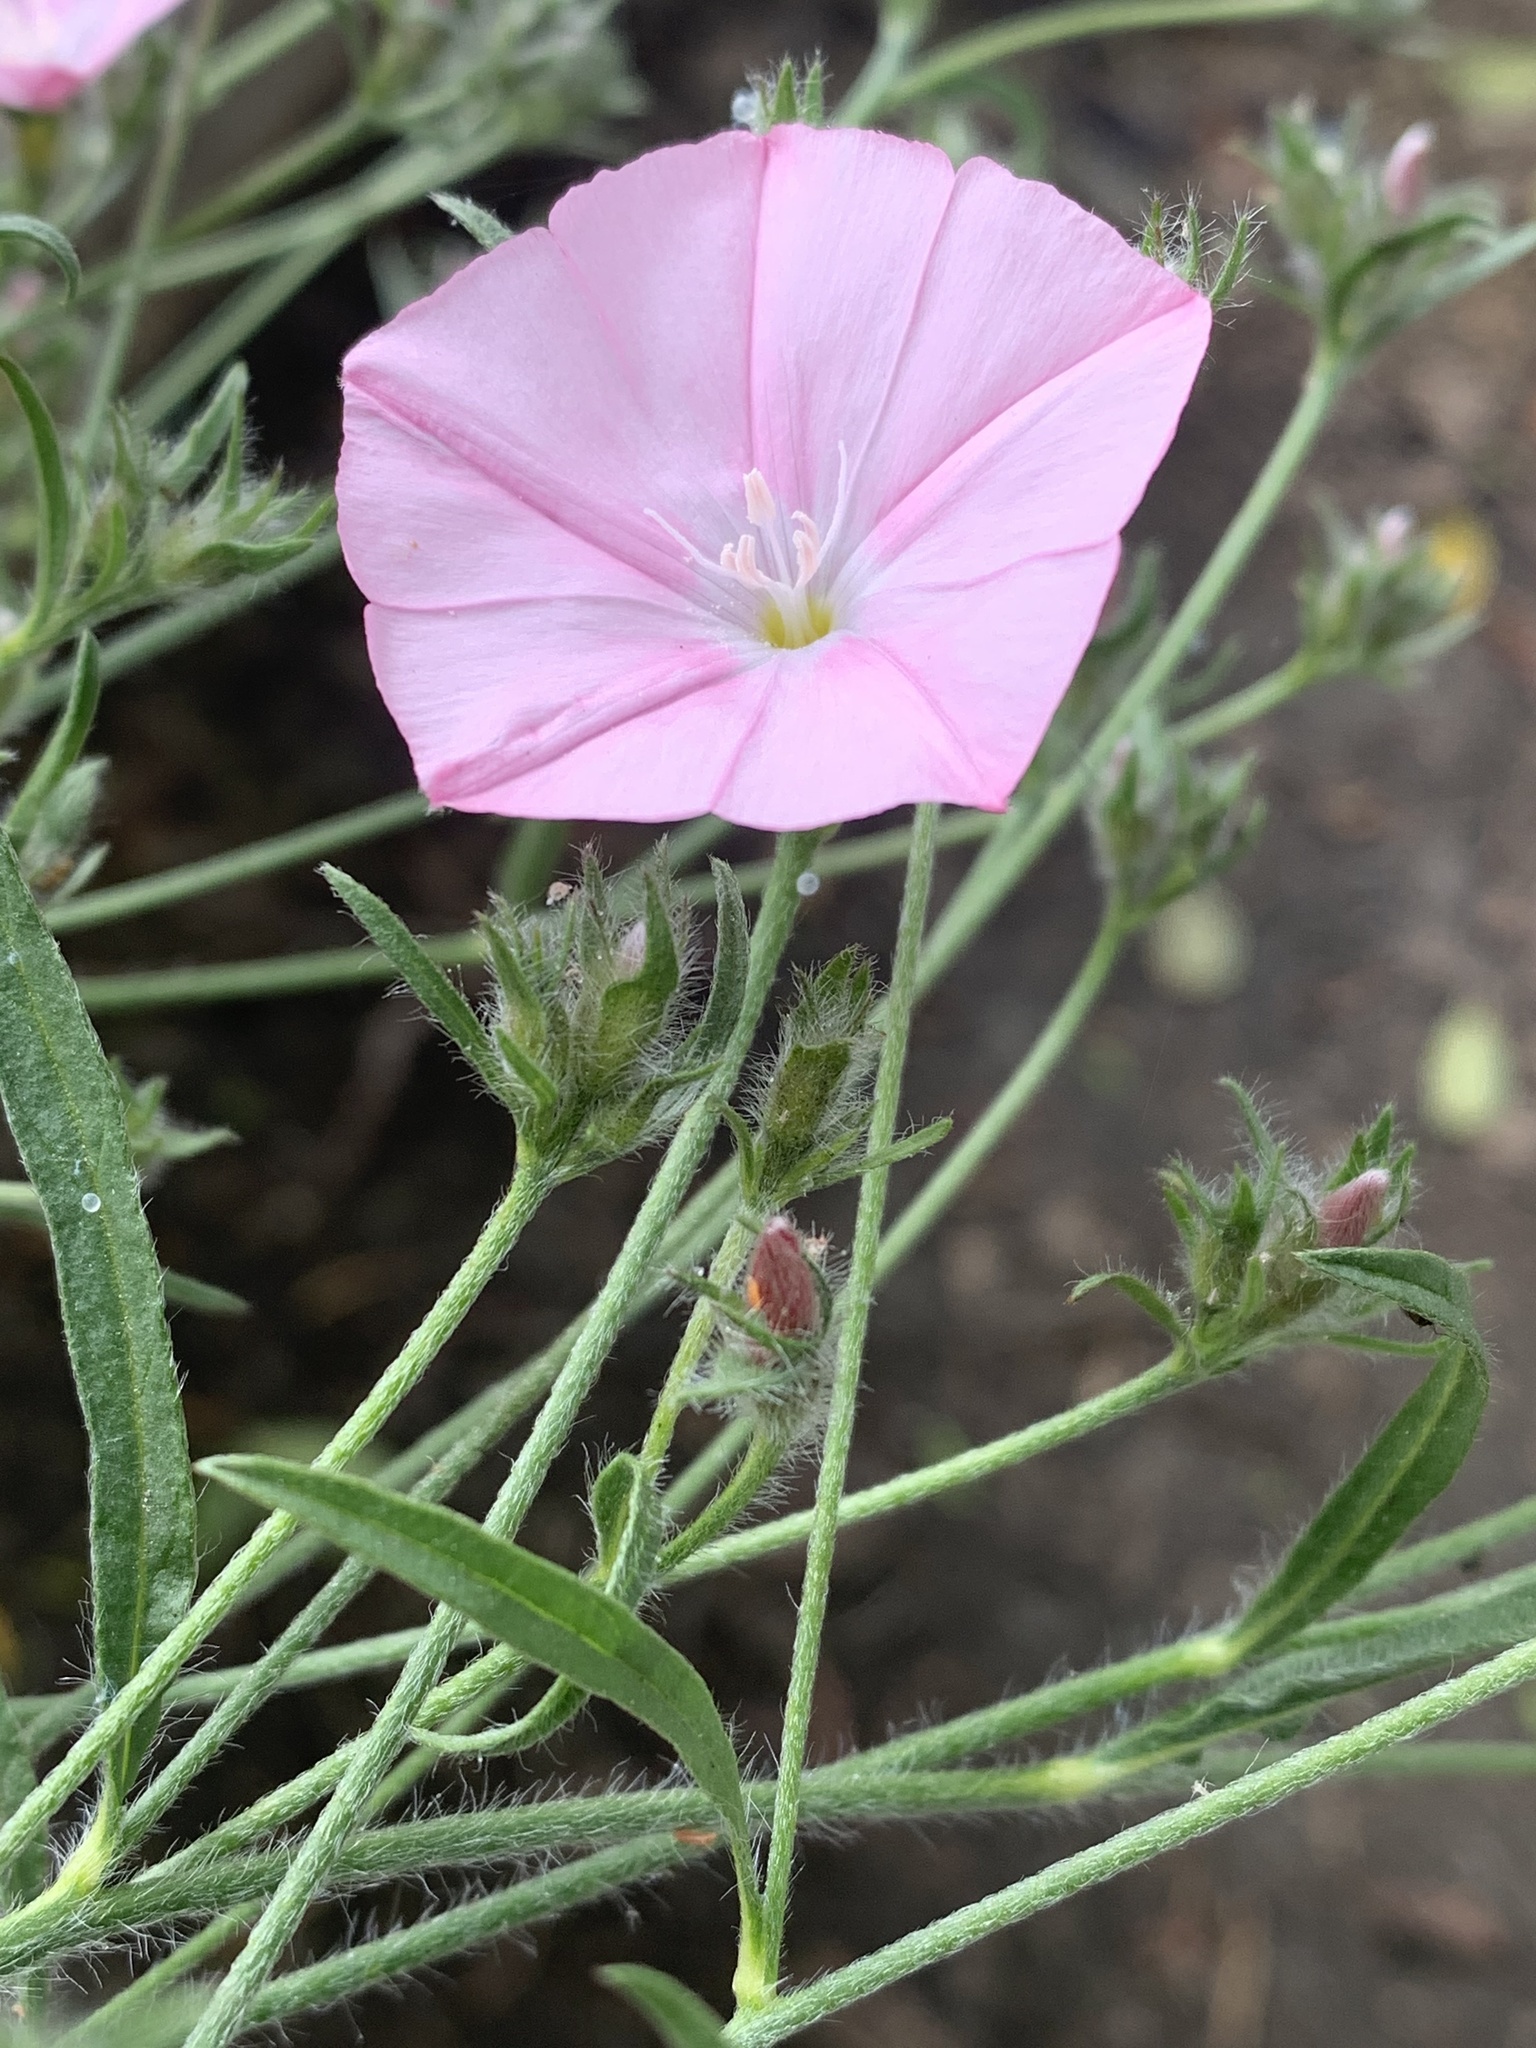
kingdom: Plantae
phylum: Tracheophyta
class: Magnoliopsida
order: Solanales
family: Convolvulaceae
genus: Convolvulus
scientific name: Convolvulus cantabrica
